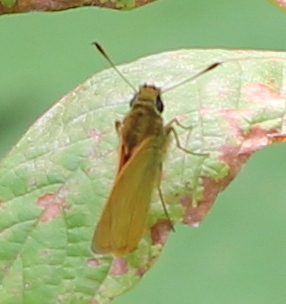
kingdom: Animalia
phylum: Arthropoda
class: Insecta
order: Lepidoptera
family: Hesperiidae
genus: Ochlodes
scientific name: Ochlodes venata
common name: Large skipper
